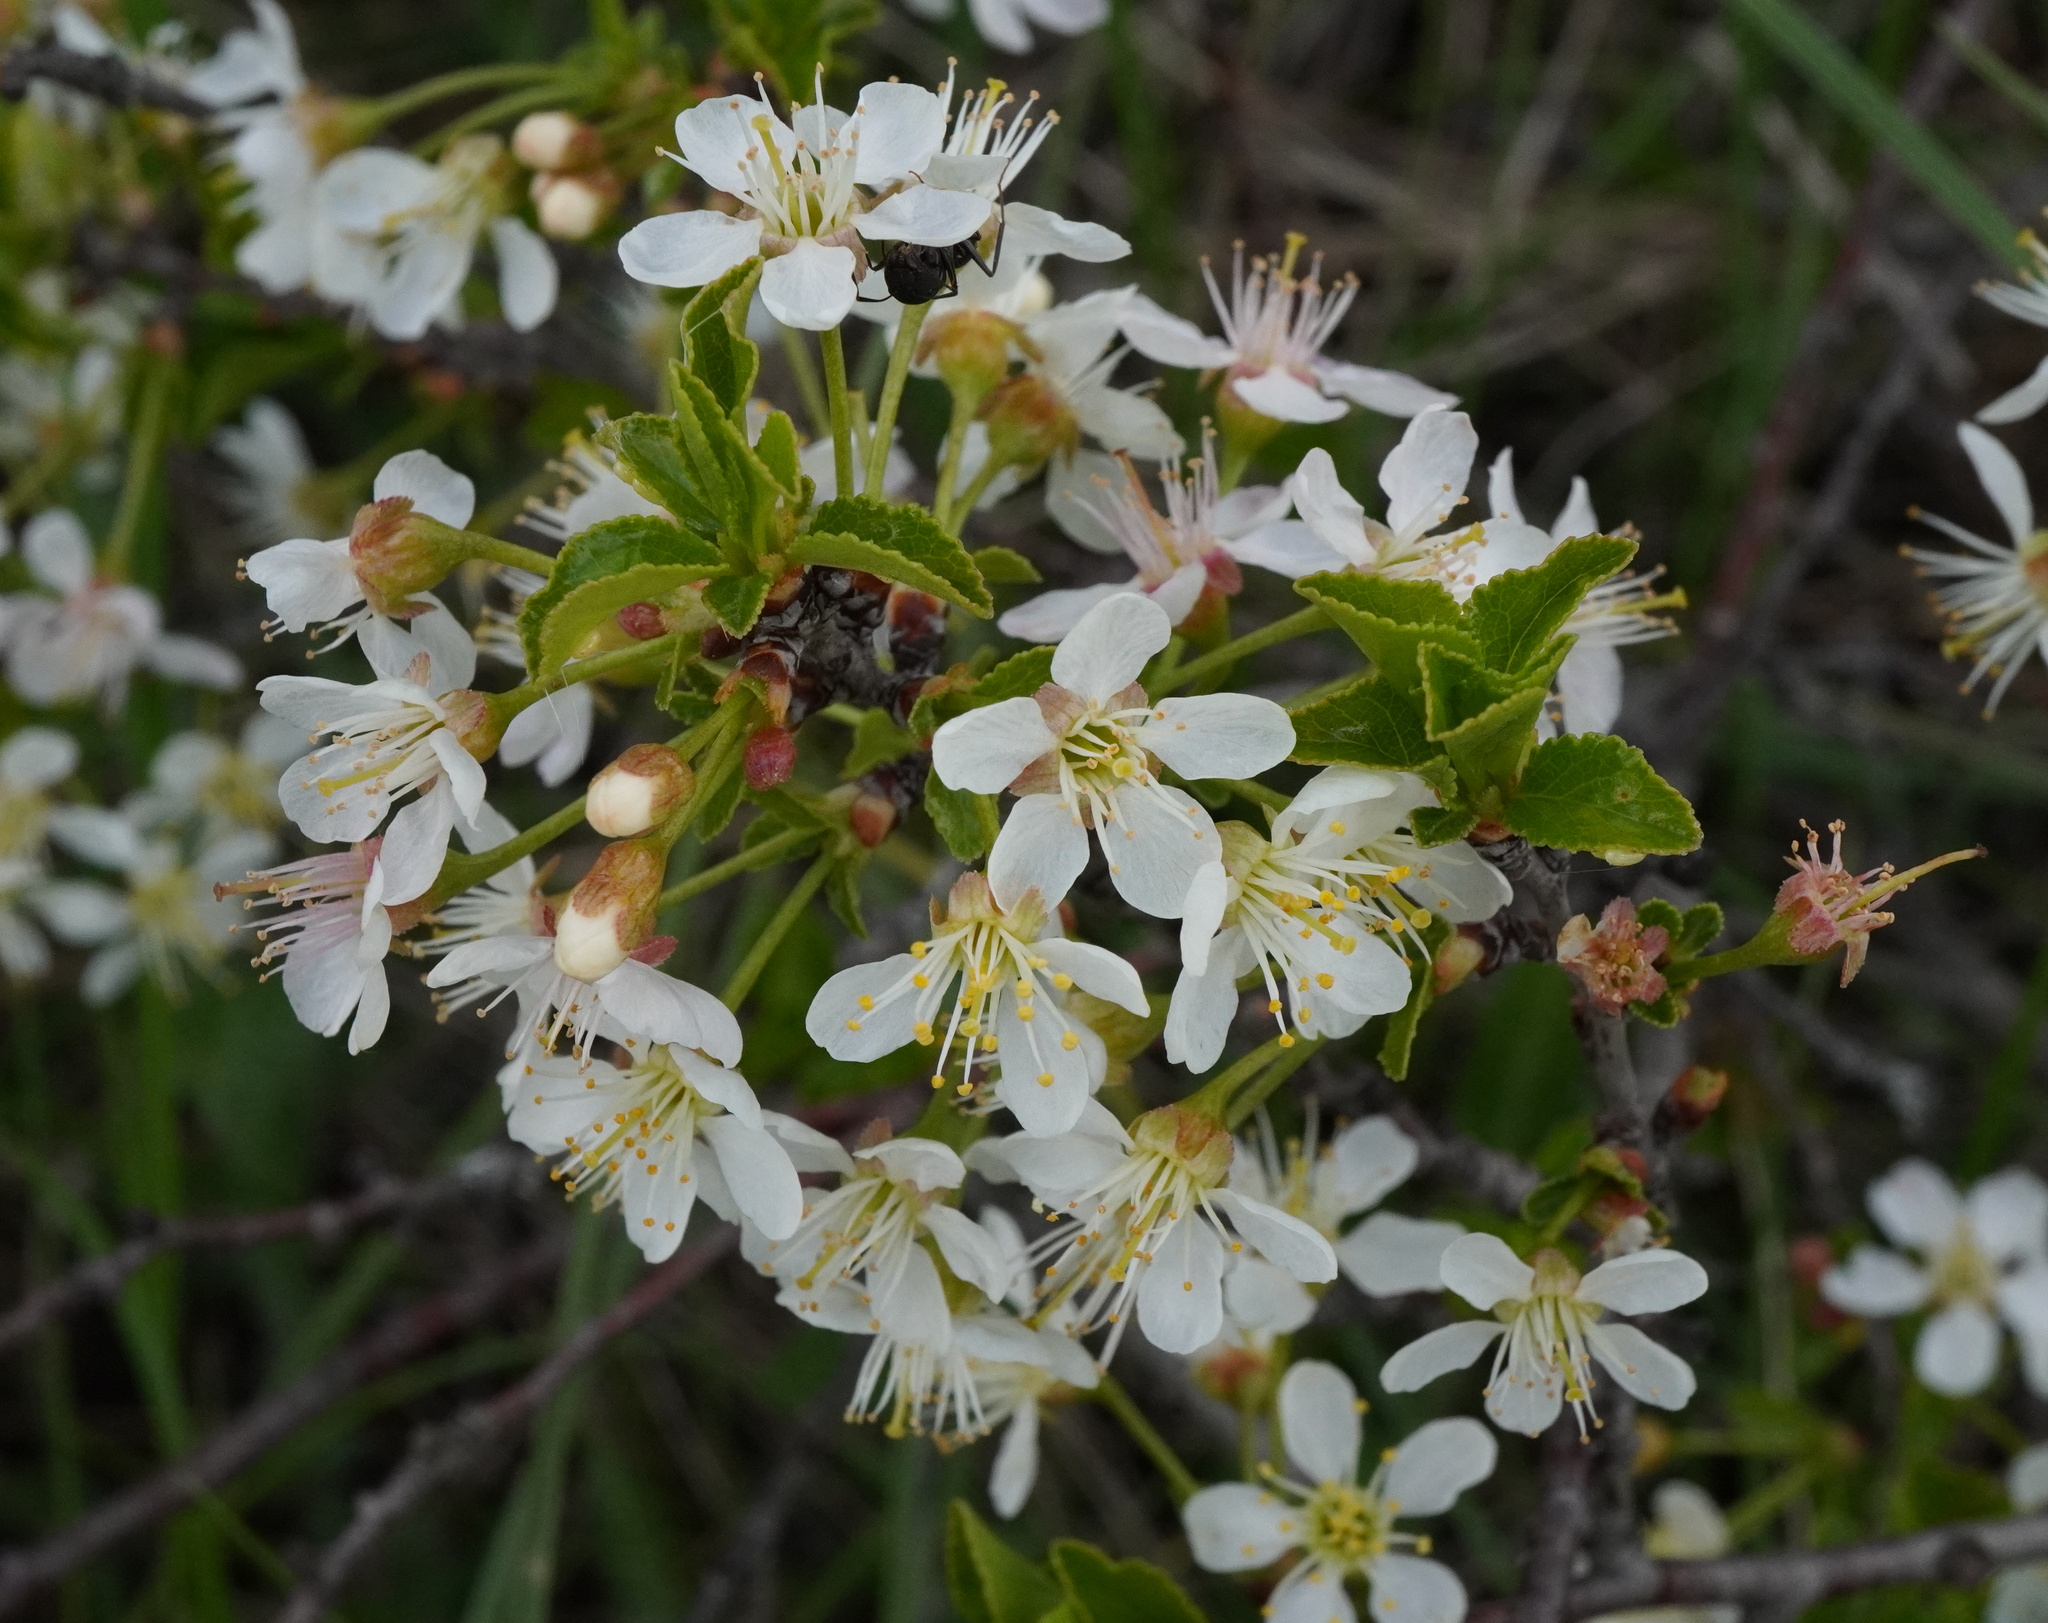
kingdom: Plantae
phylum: Tracheophyta
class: Magnoliopsida
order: Rosales
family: Rosaceae
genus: Prunus
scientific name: Prunus fruticosa
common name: European dwarf cherry
